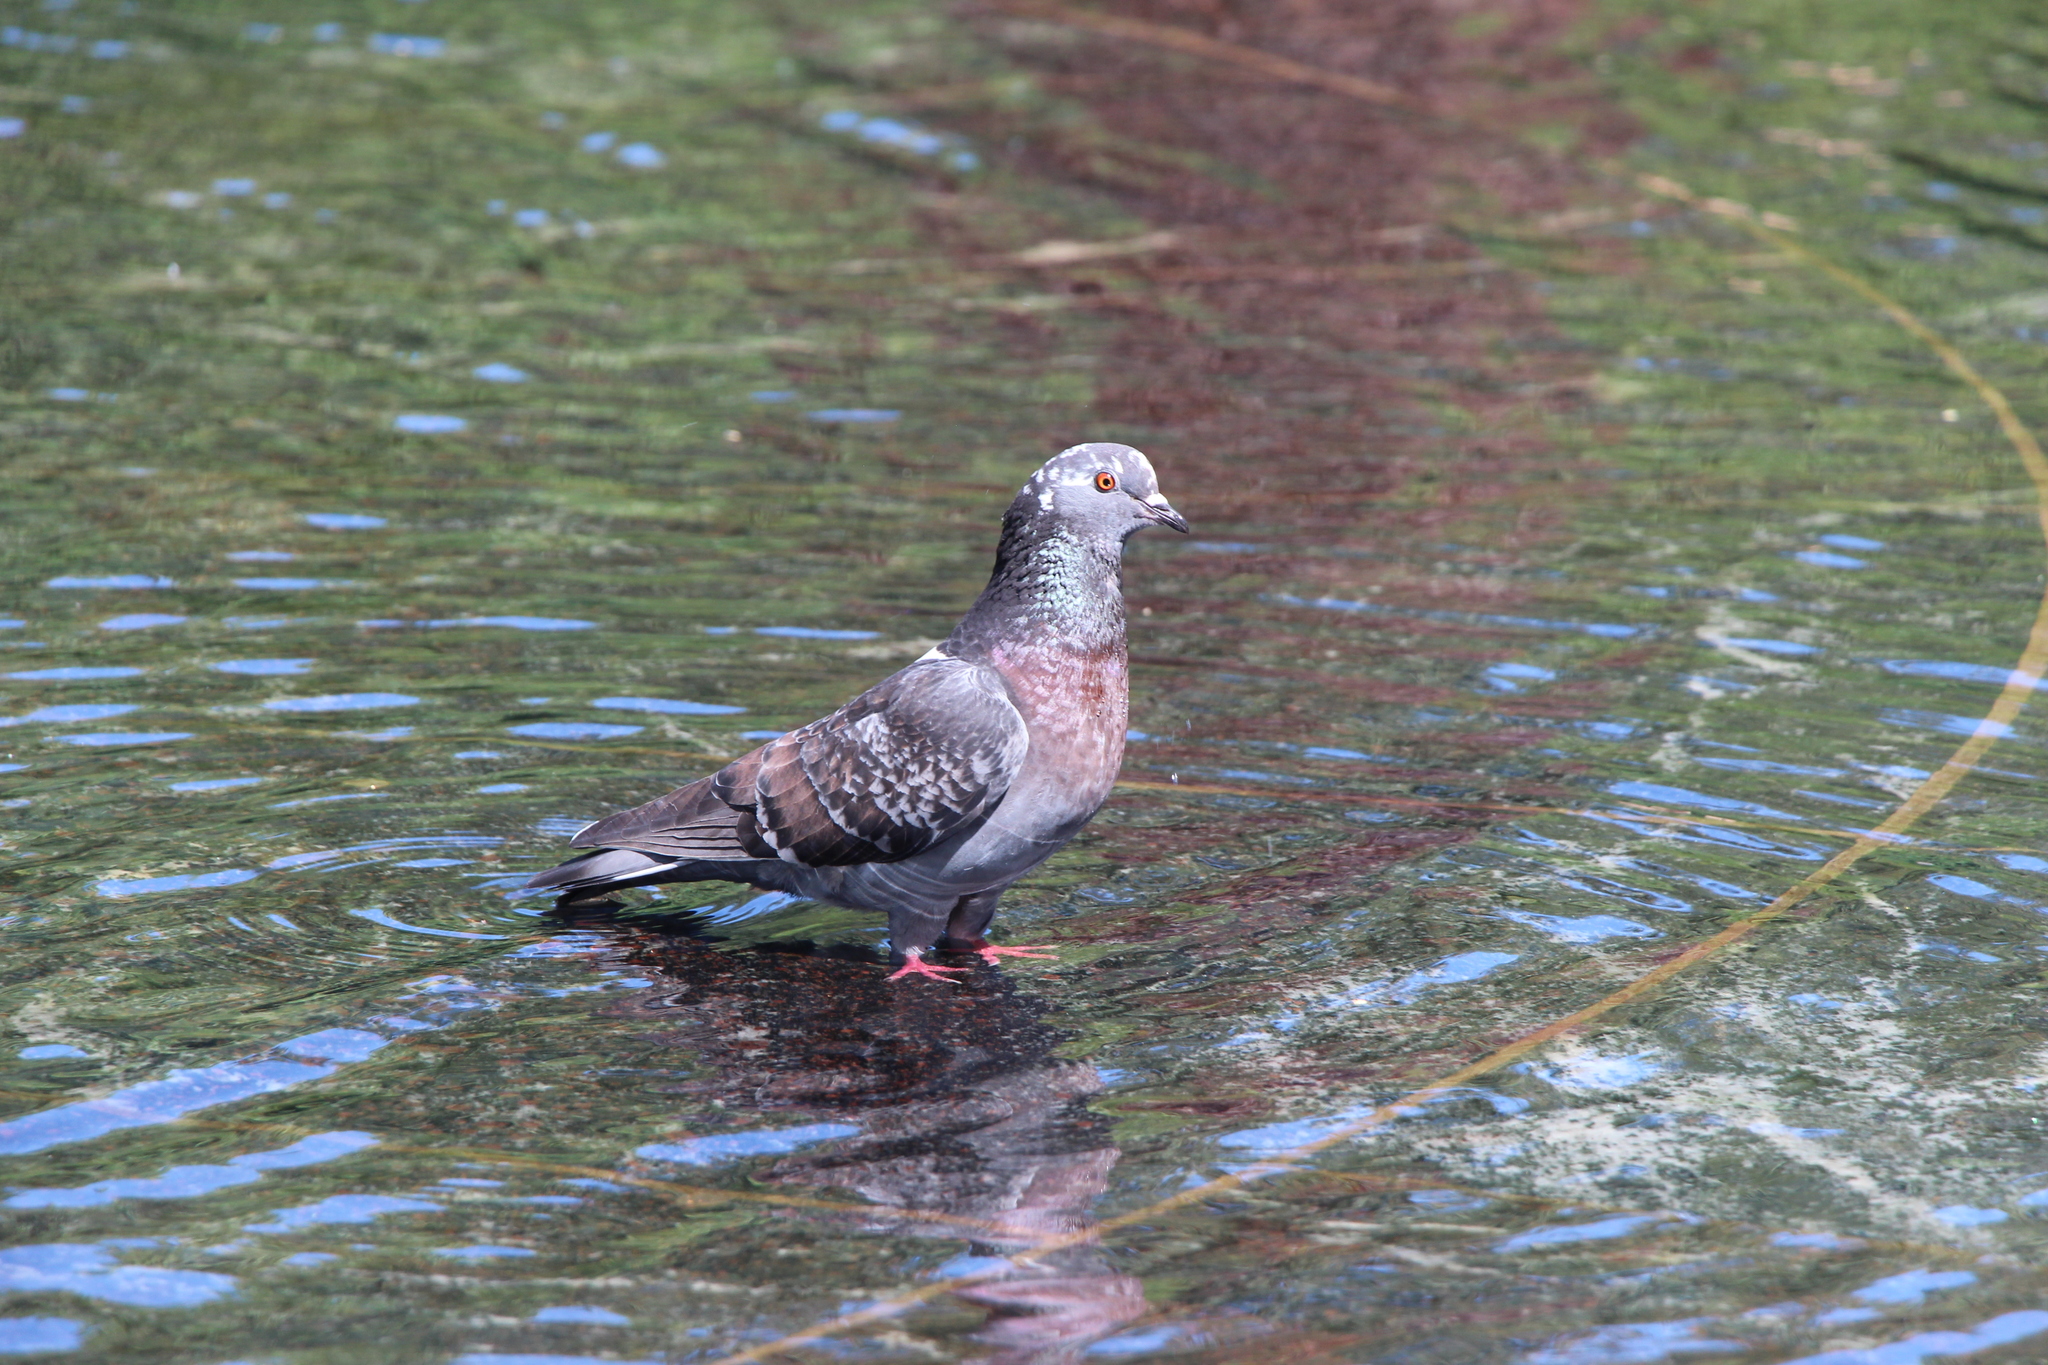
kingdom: Animalia
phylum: Chordata
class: Aves
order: Columbiformes
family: Columbidae
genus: Columba
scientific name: Columba livia
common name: Rock pigeon
